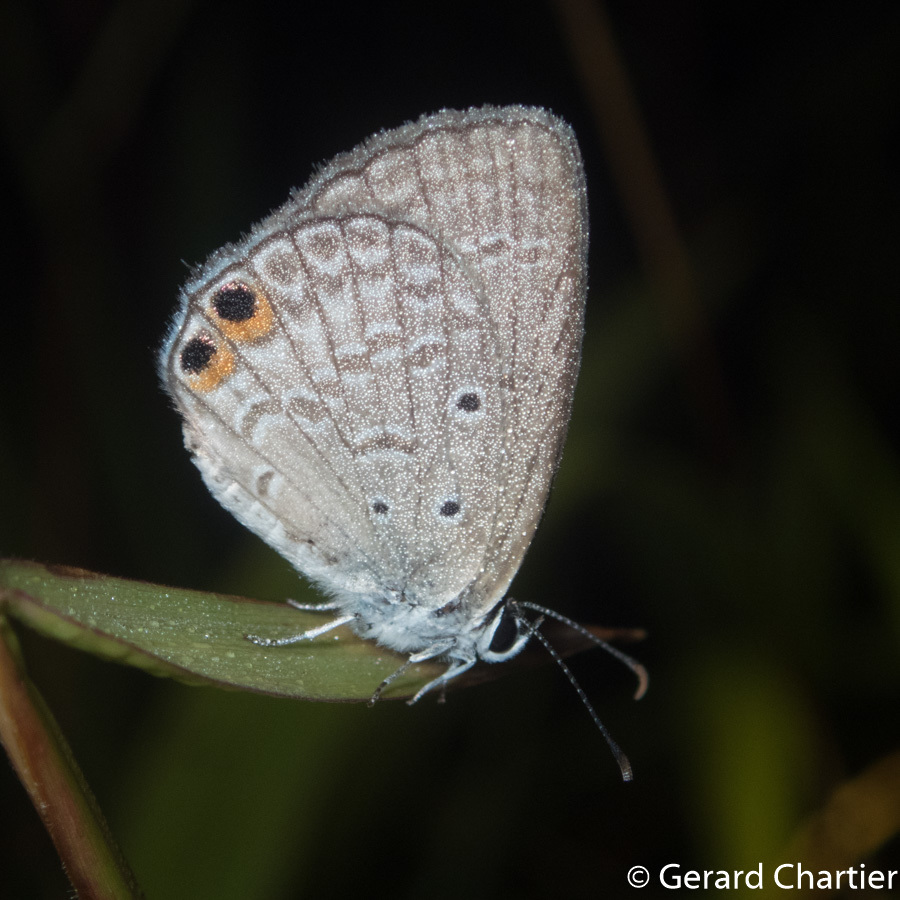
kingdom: Animalia
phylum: Arthropoda
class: Insecta
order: Lepidoptera
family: Lycaenidae
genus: Euchrysops
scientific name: Euchrysops cnejus
